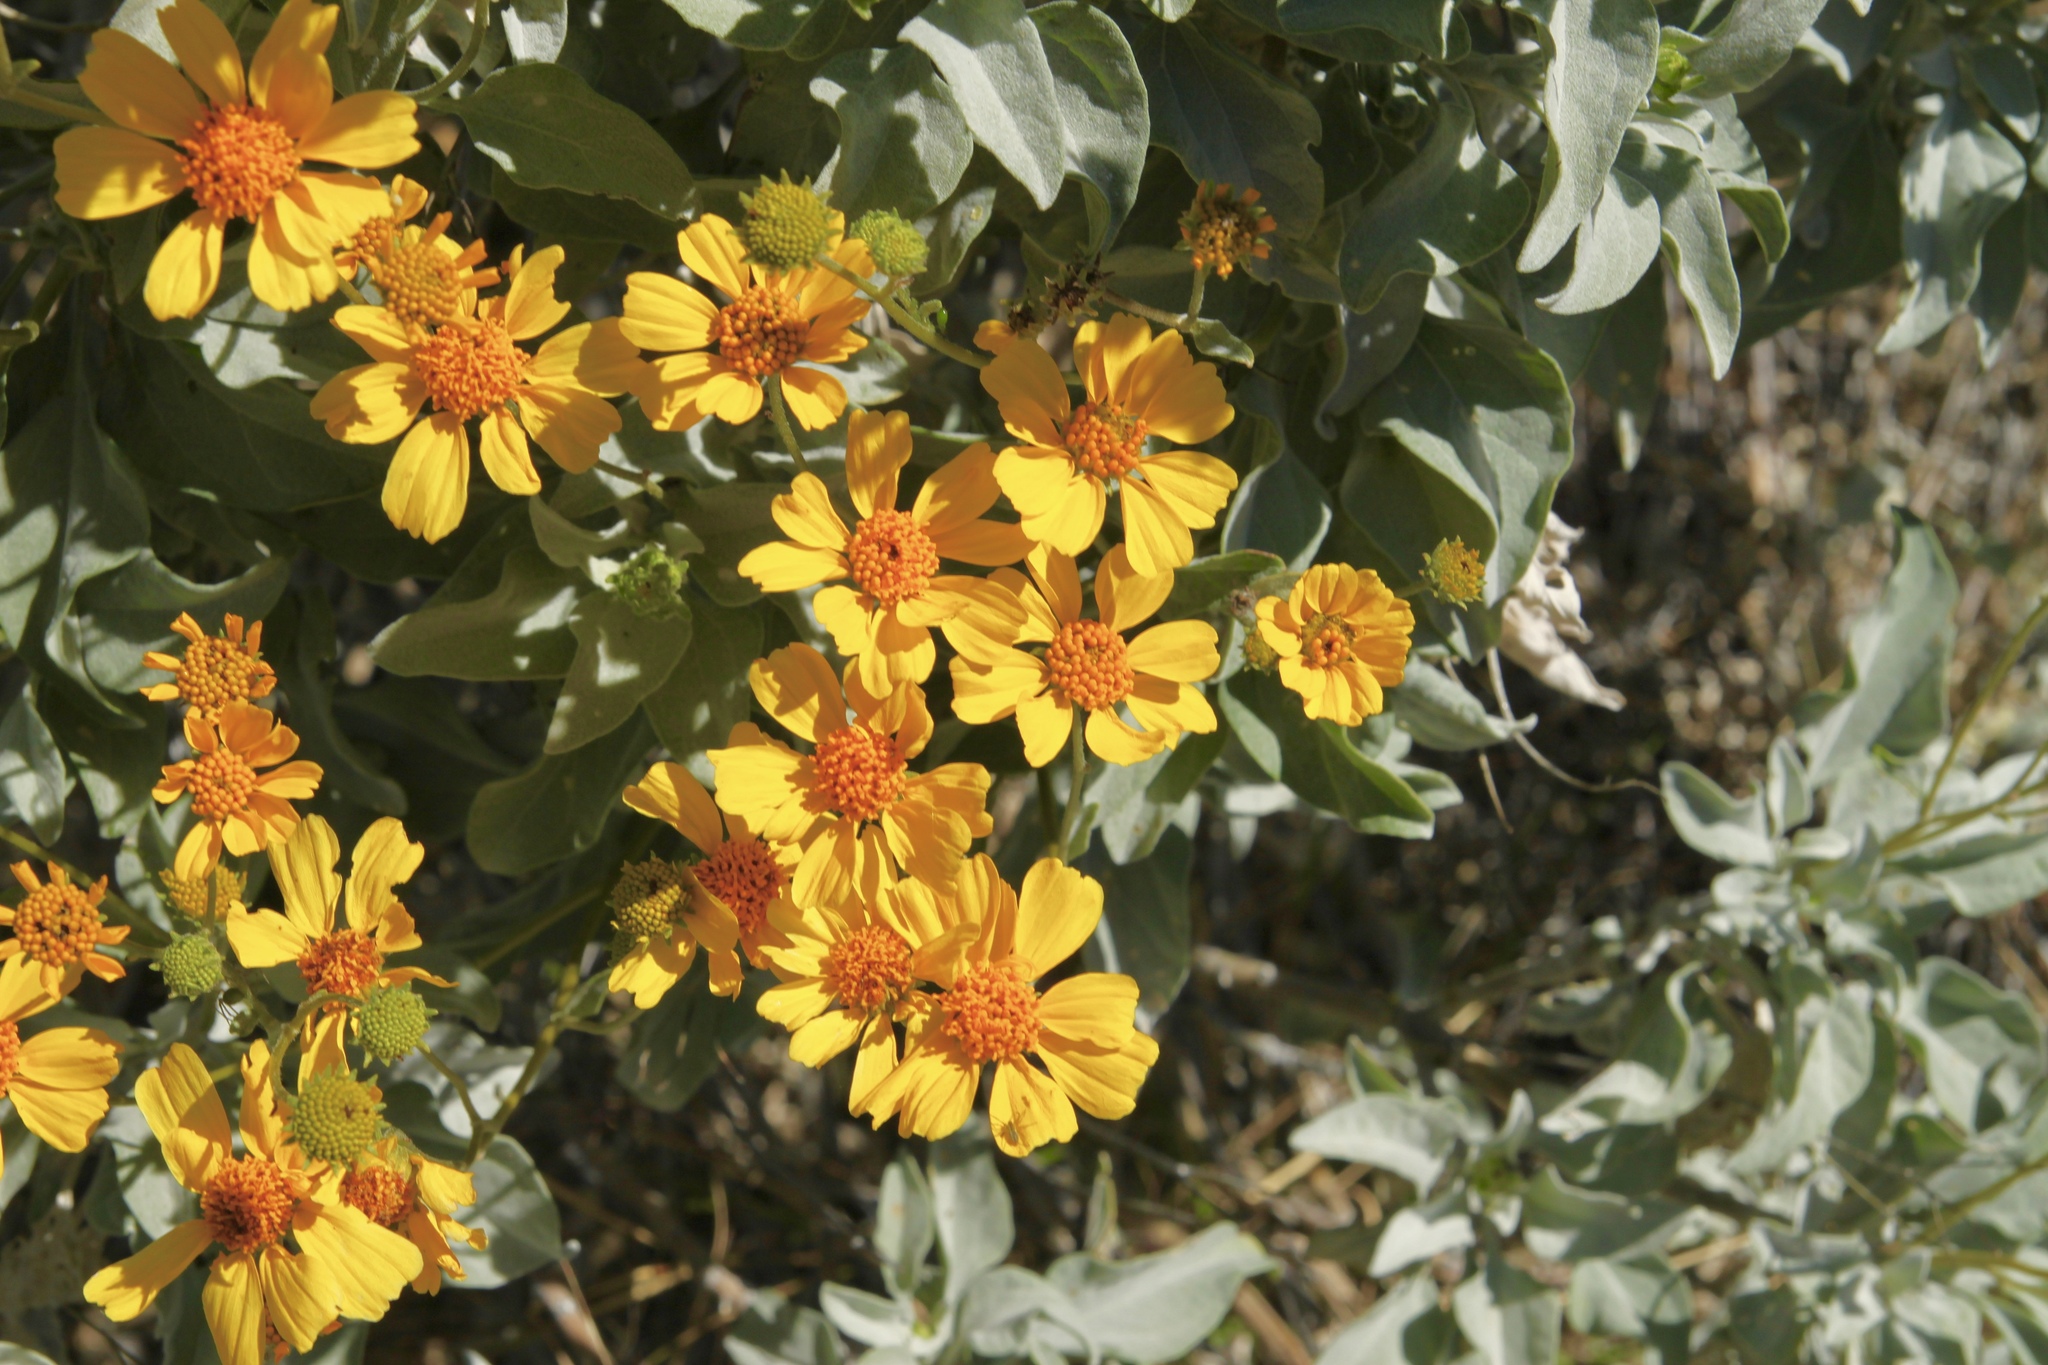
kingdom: Plantae
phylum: Tracheophyta
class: Magnoliopsida
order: Asterales
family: Asteraceae
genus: Encelia
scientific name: Encelia farinosa
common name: Brittlebush
